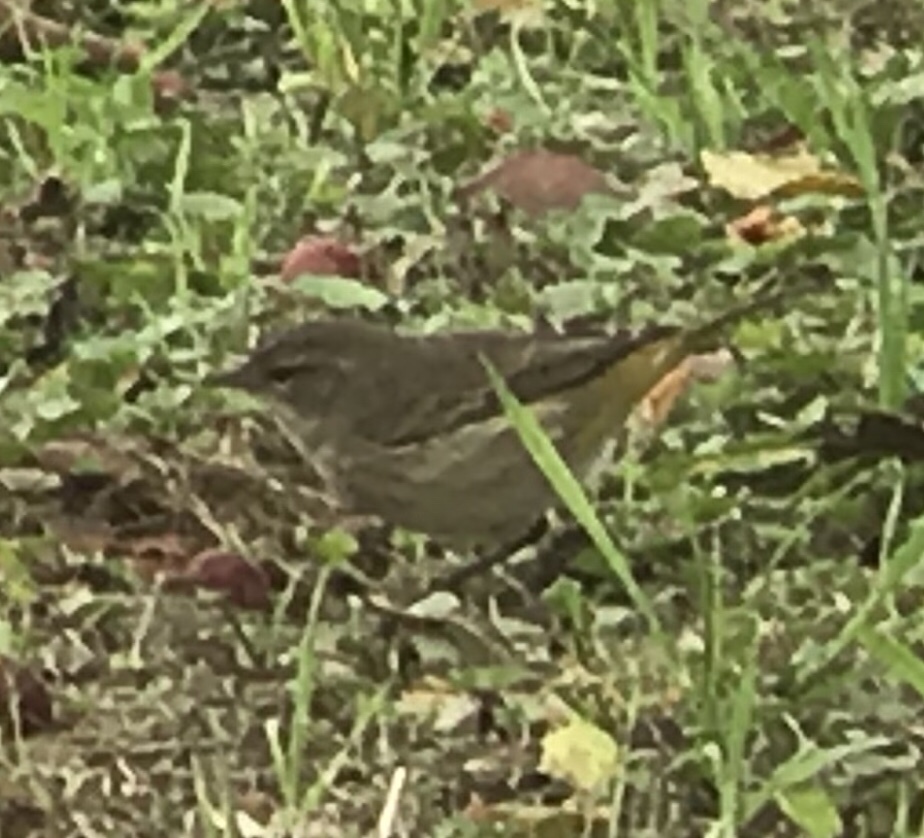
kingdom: Animalia
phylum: Chordata
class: Aves
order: Passeriformes
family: Parulidae
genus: Setophaga
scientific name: Setophaga palmarum
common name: Palm warbler
